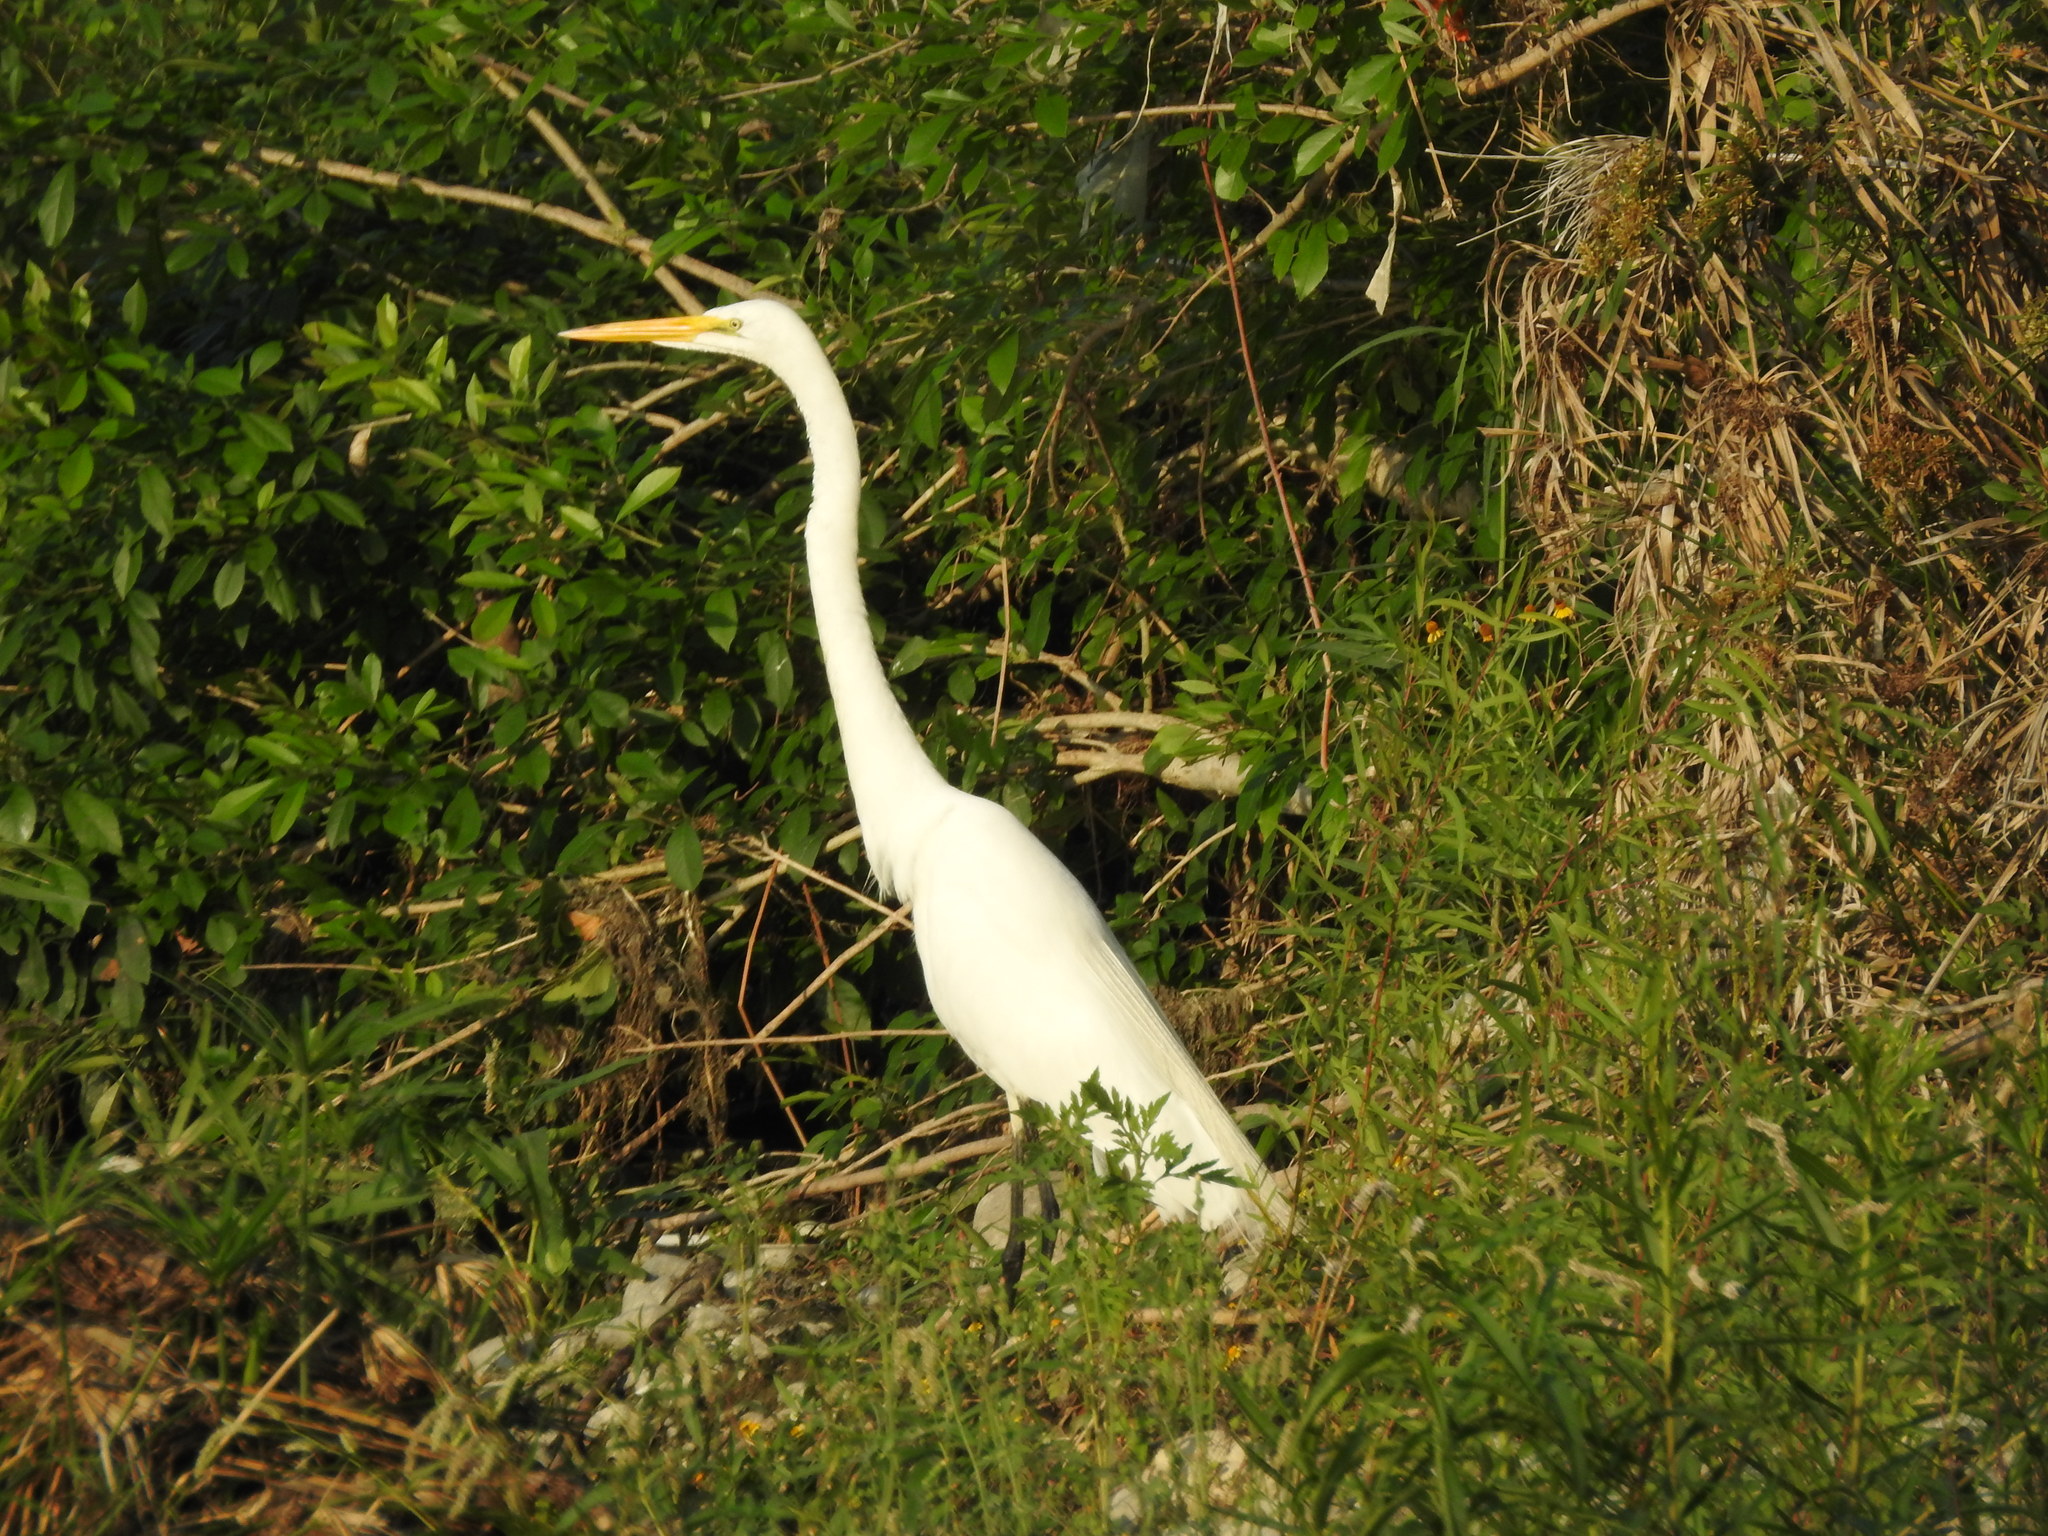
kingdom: Animalia
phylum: Chordata
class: Aves
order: Pelecaniformes
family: Ardeidae
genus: Ardea
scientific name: Ardea alba
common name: Great egret
